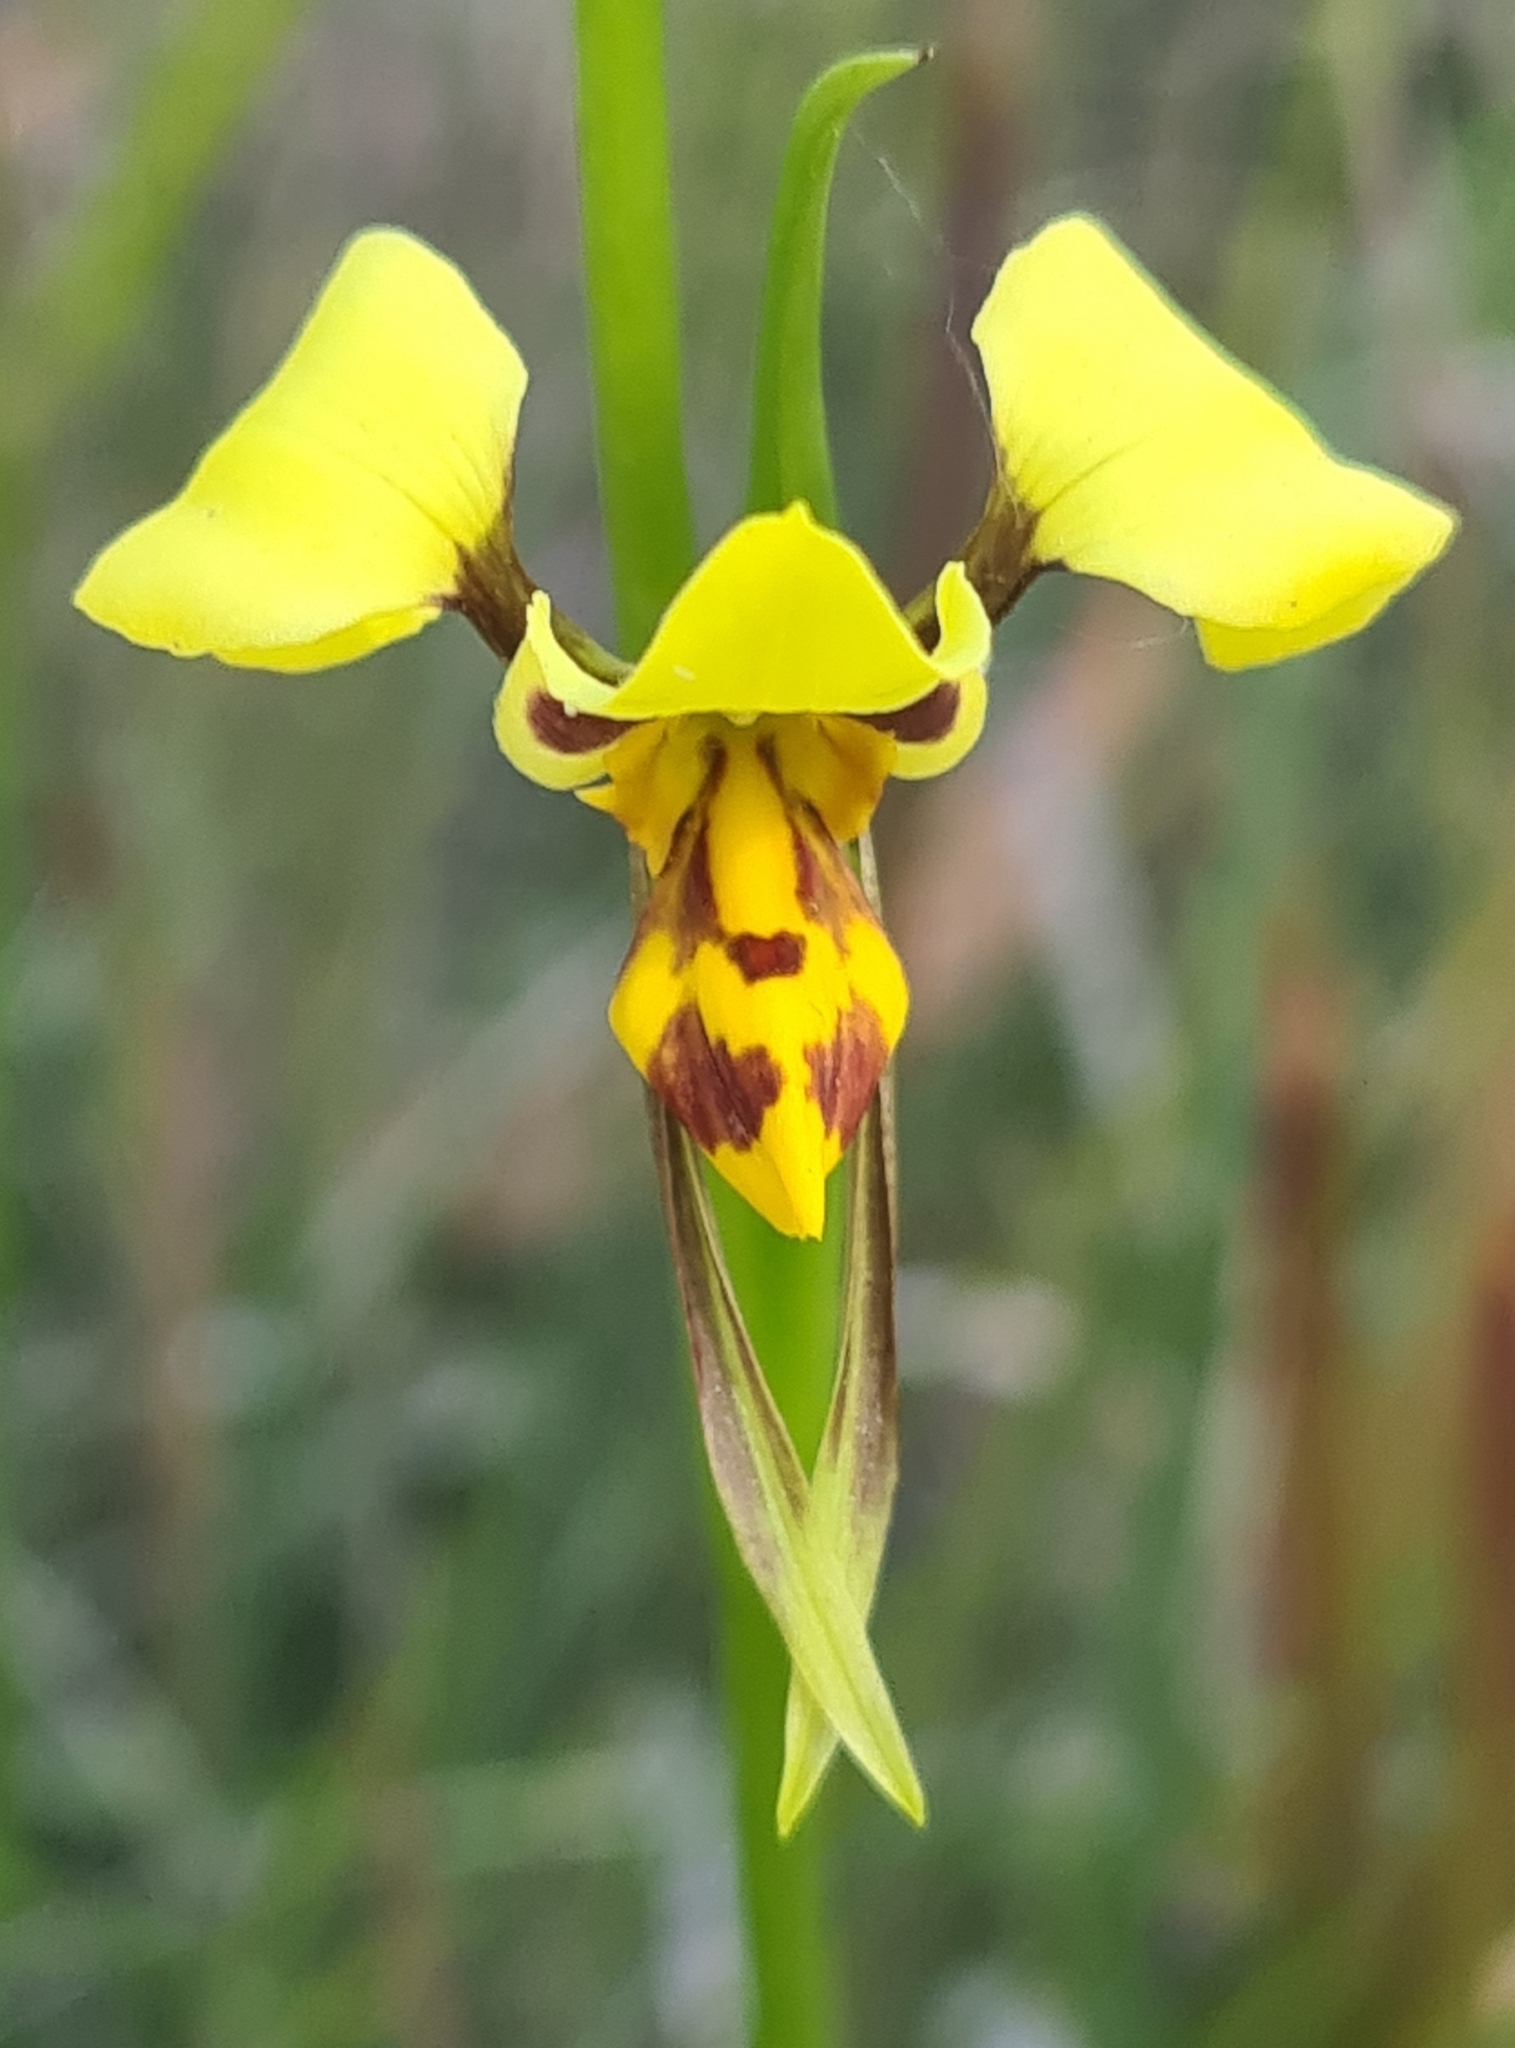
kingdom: Plantae
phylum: Tracheophyta
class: Liliopsida
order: Asparagales
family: Orchidaceae
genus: Diuris
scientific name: Diuris sulphurea
